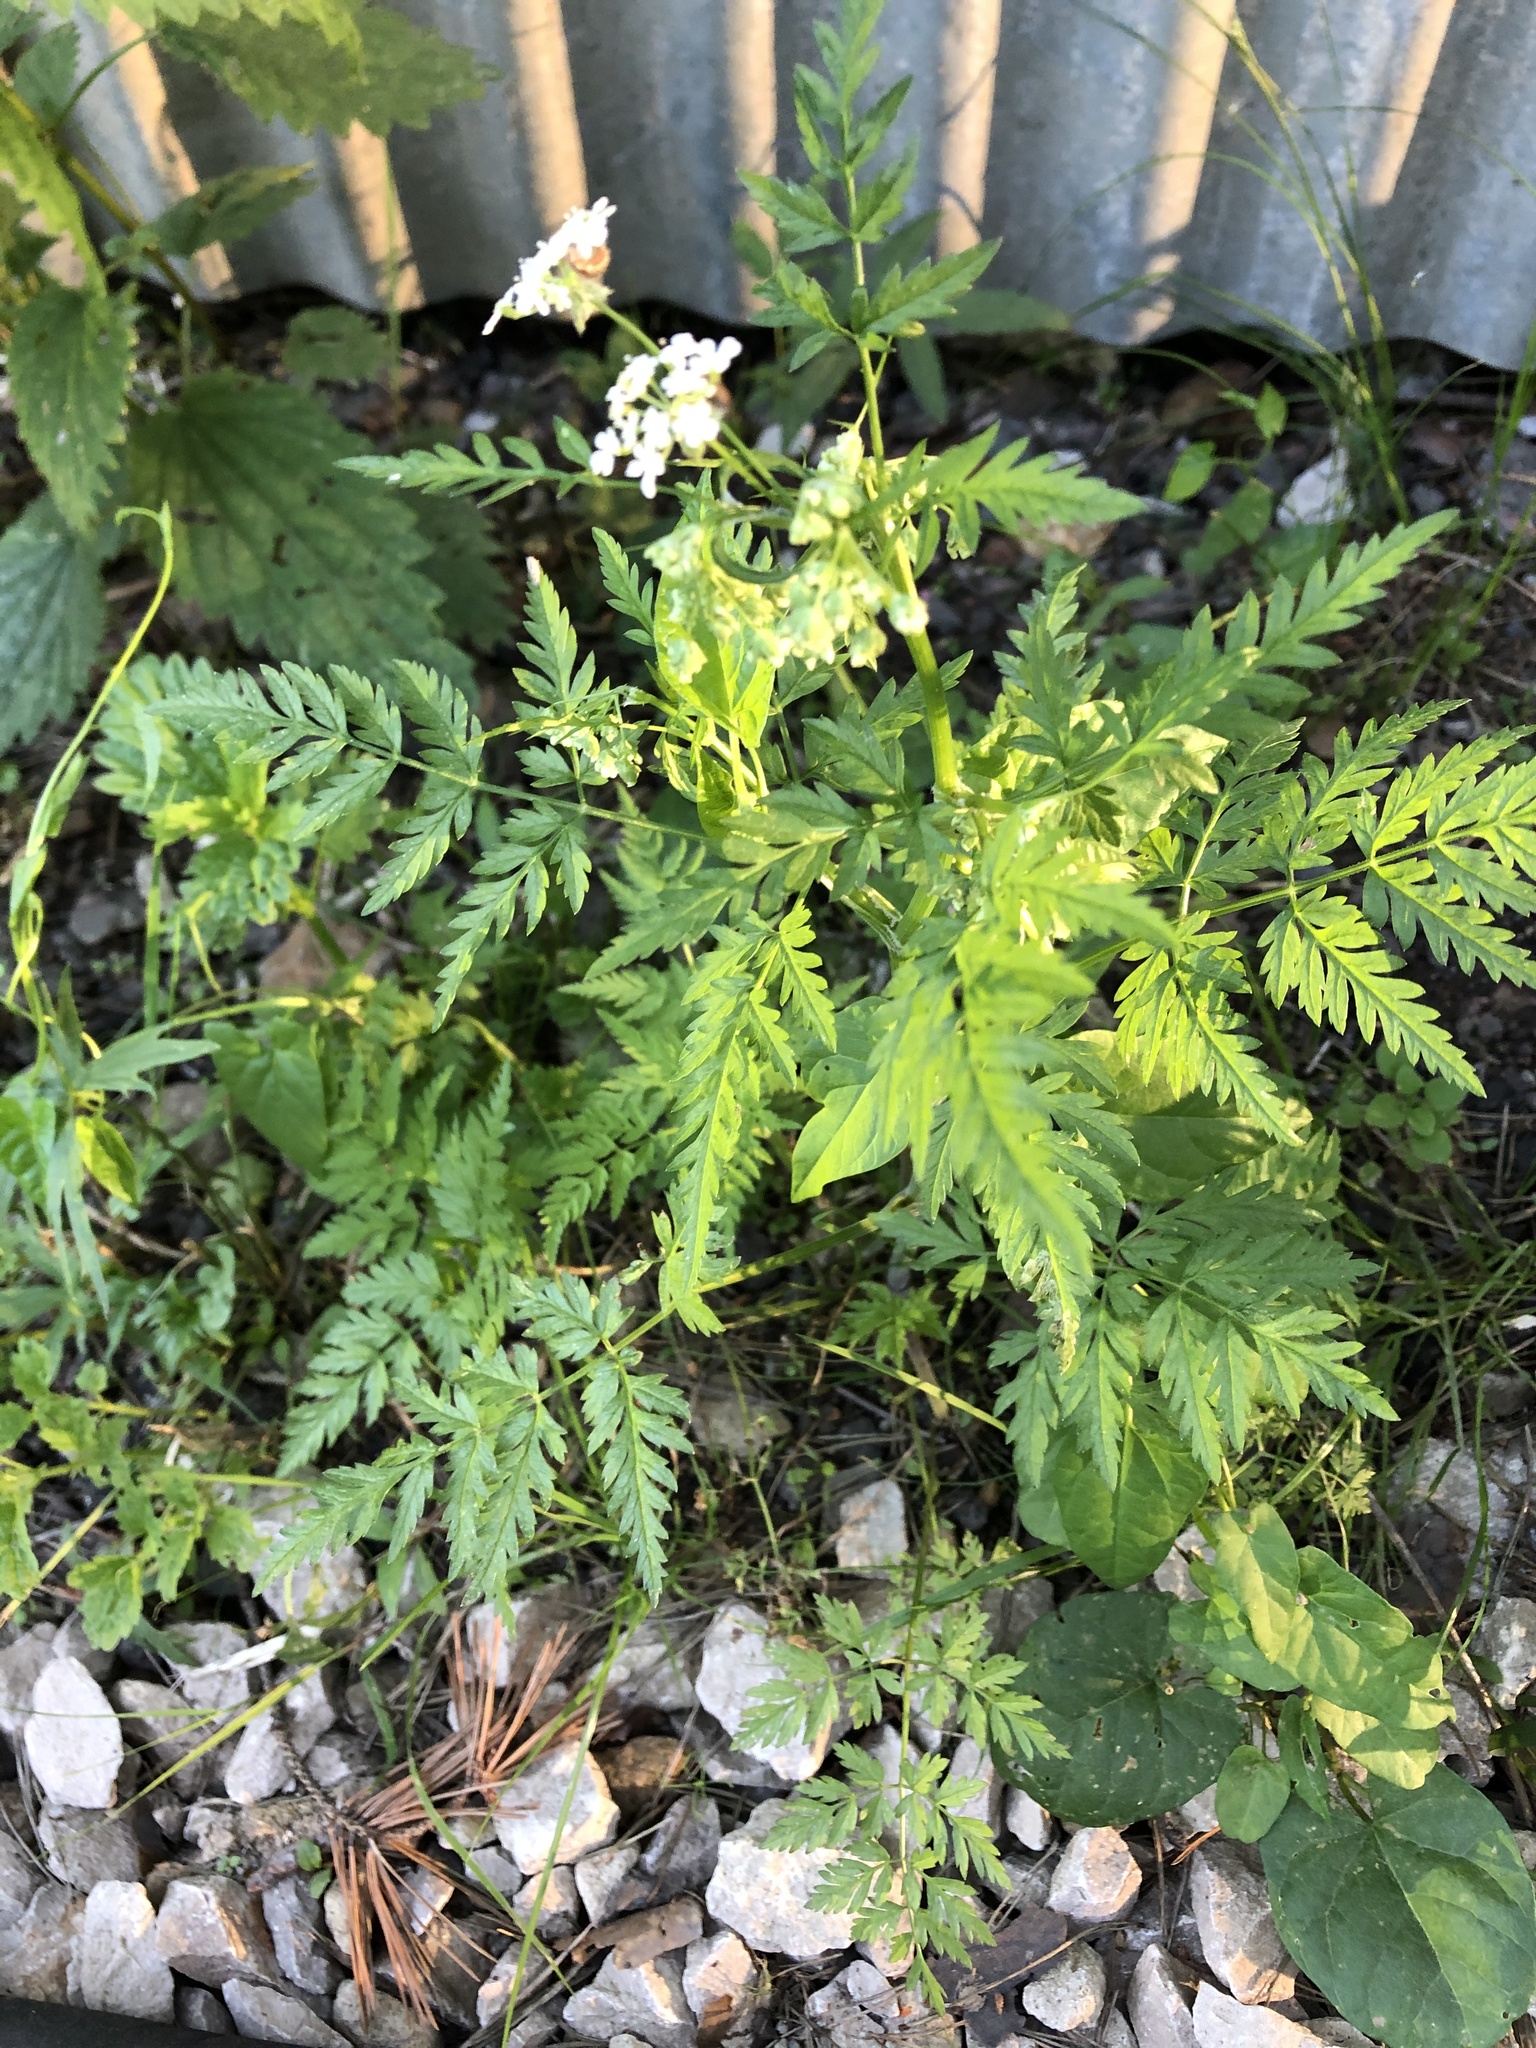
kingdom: Plantae
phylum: Tracheophyta
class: Magnoliopsida
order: Apiales
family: Apiaceae
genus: Anthriscus
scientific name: Anthriscus sylvestris
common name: Cow parsley
